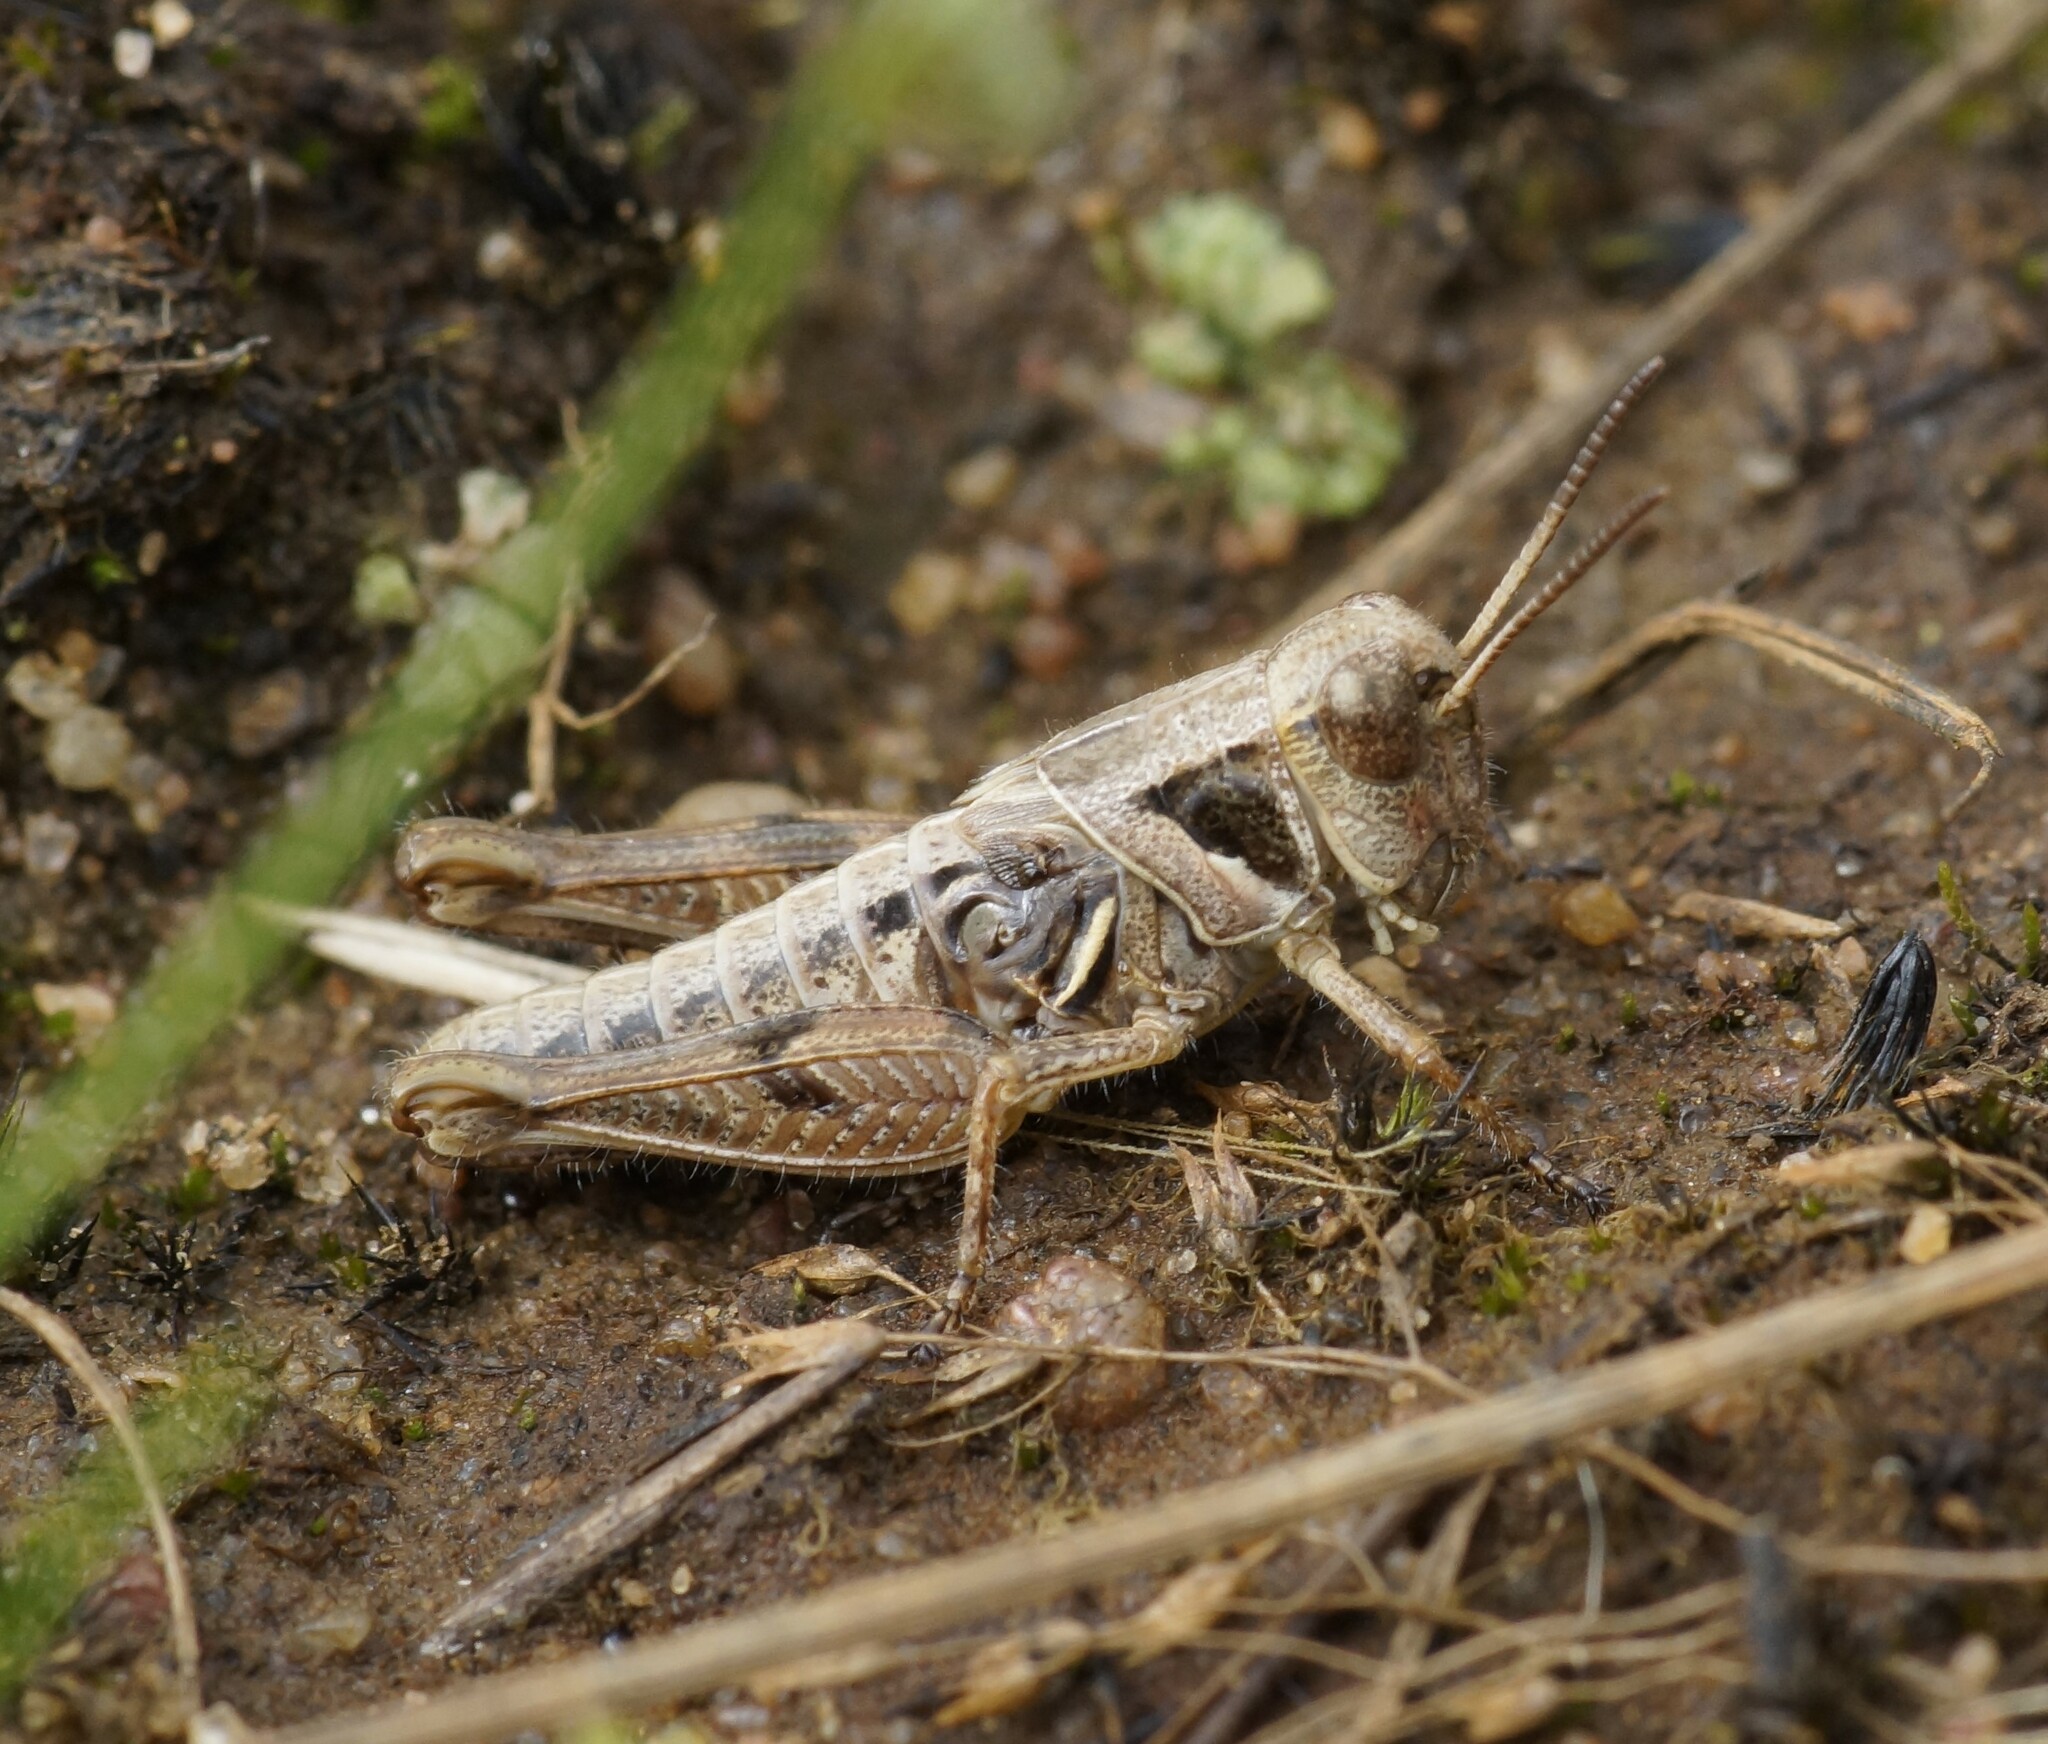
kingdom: Animalia
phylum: Arthropoda
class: Insecta
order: Orthoptera
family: Acrididae
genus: Brachyexarna
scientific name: Brachyexarna lobipennis
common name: Stripe-winged meadow grasshopper
